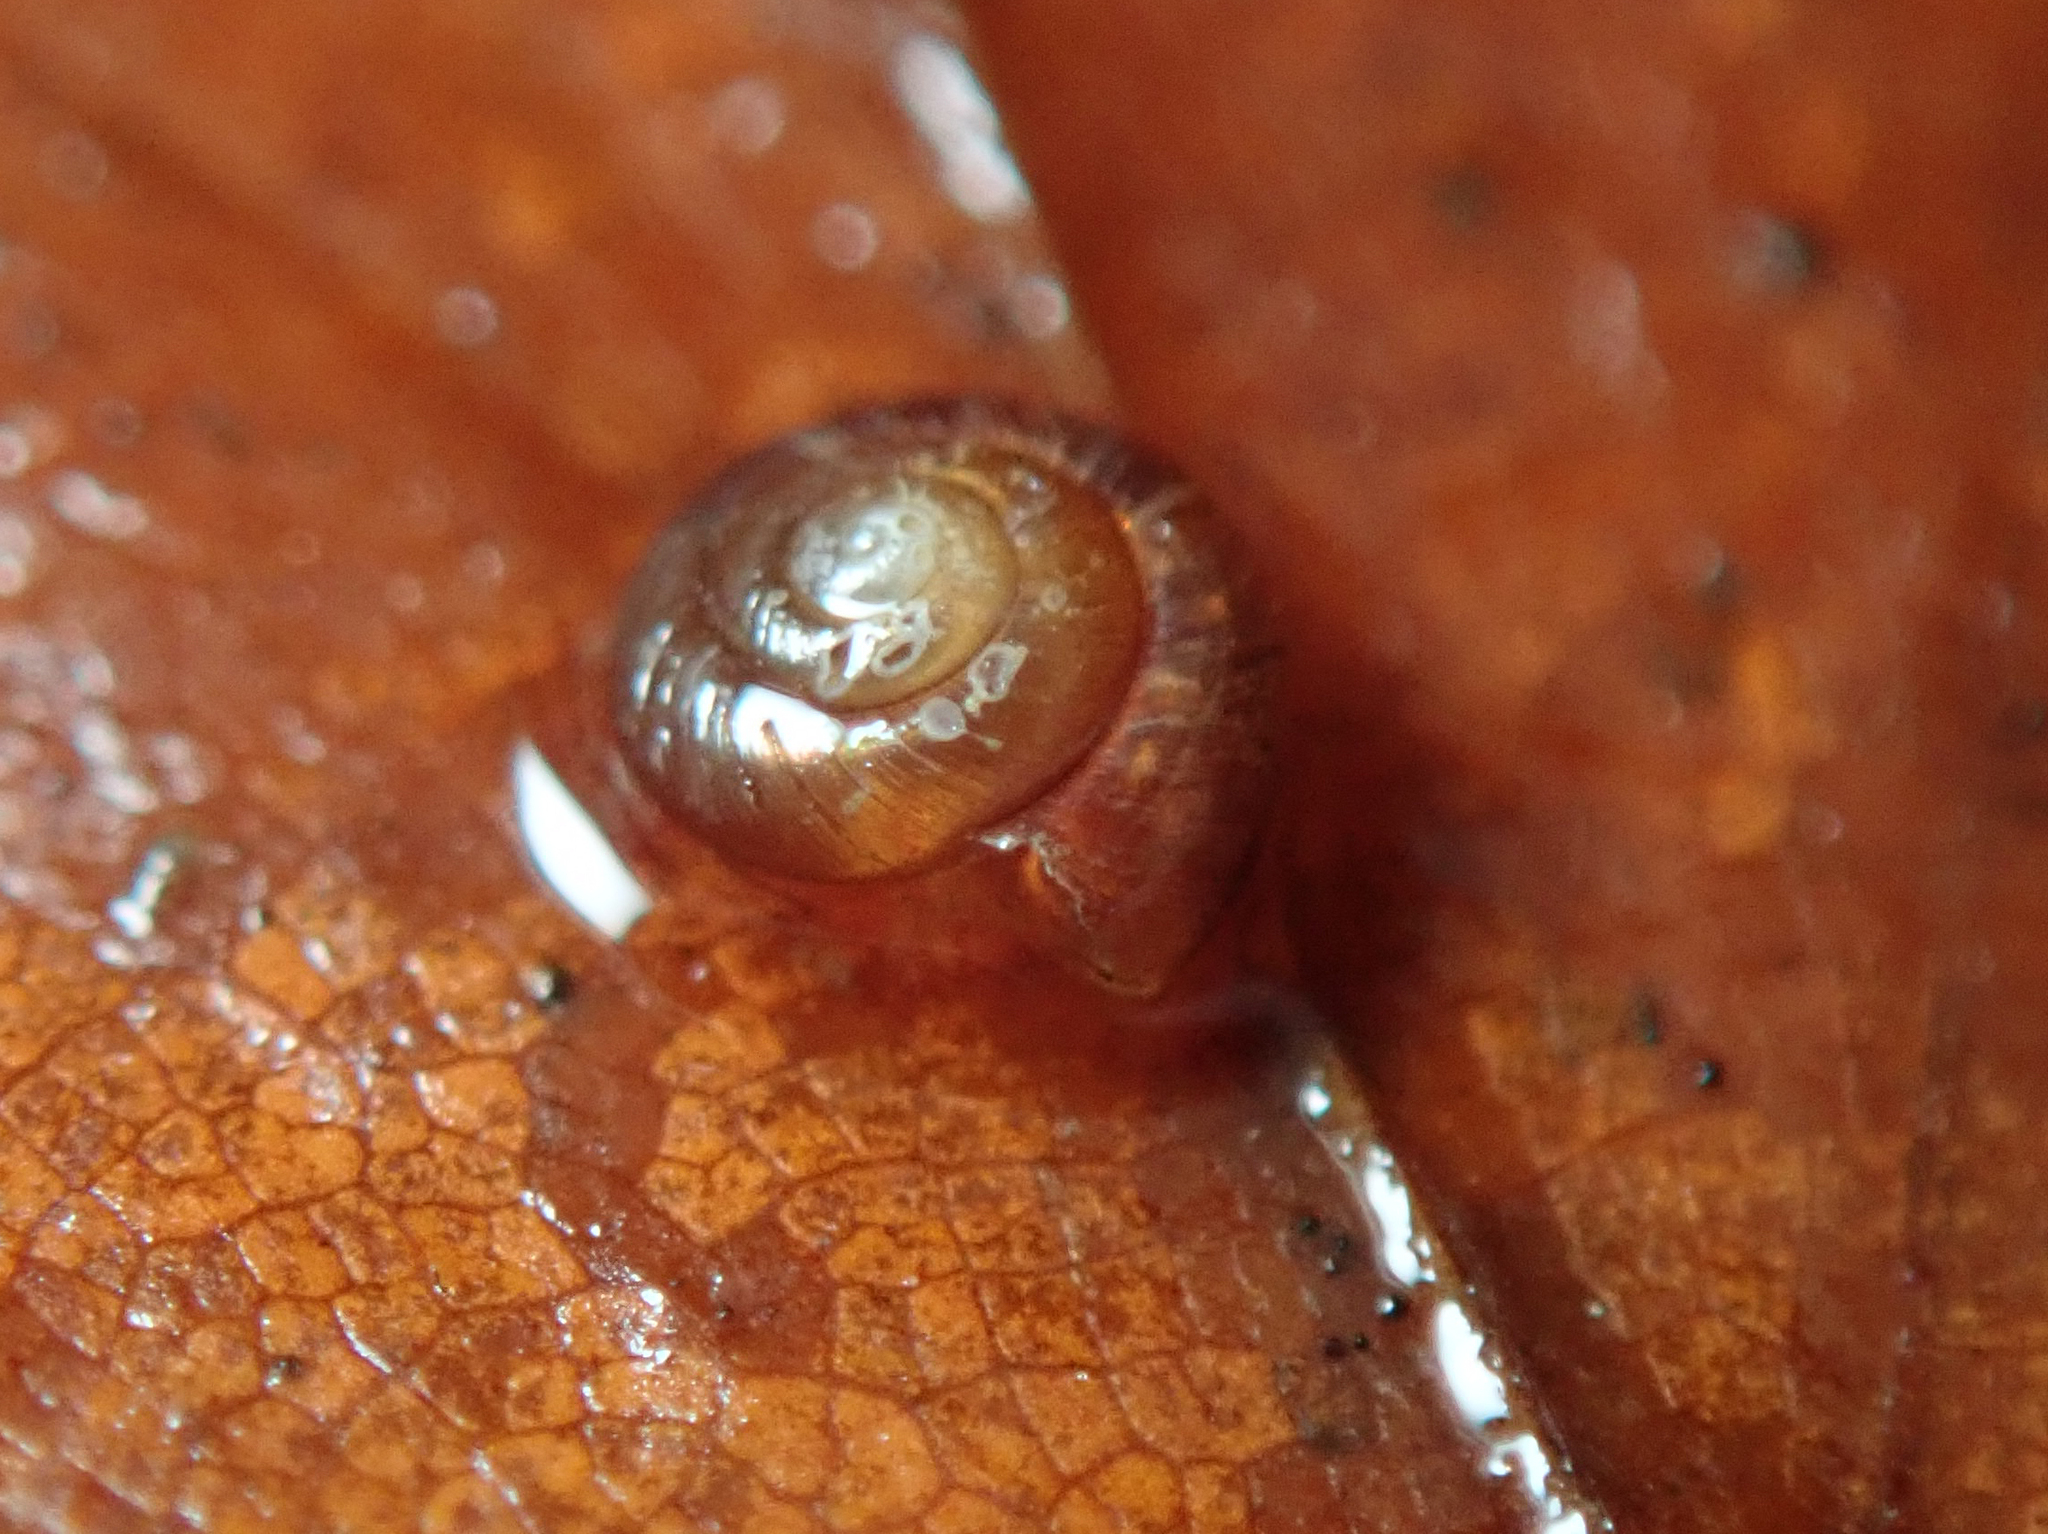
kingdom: Animalia
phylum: Mollusca
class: Gastropoda
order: Stylommatophora
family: Punctidae
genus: Paralaoma
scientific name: Paralaoma servilis
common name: Pinhead spot
